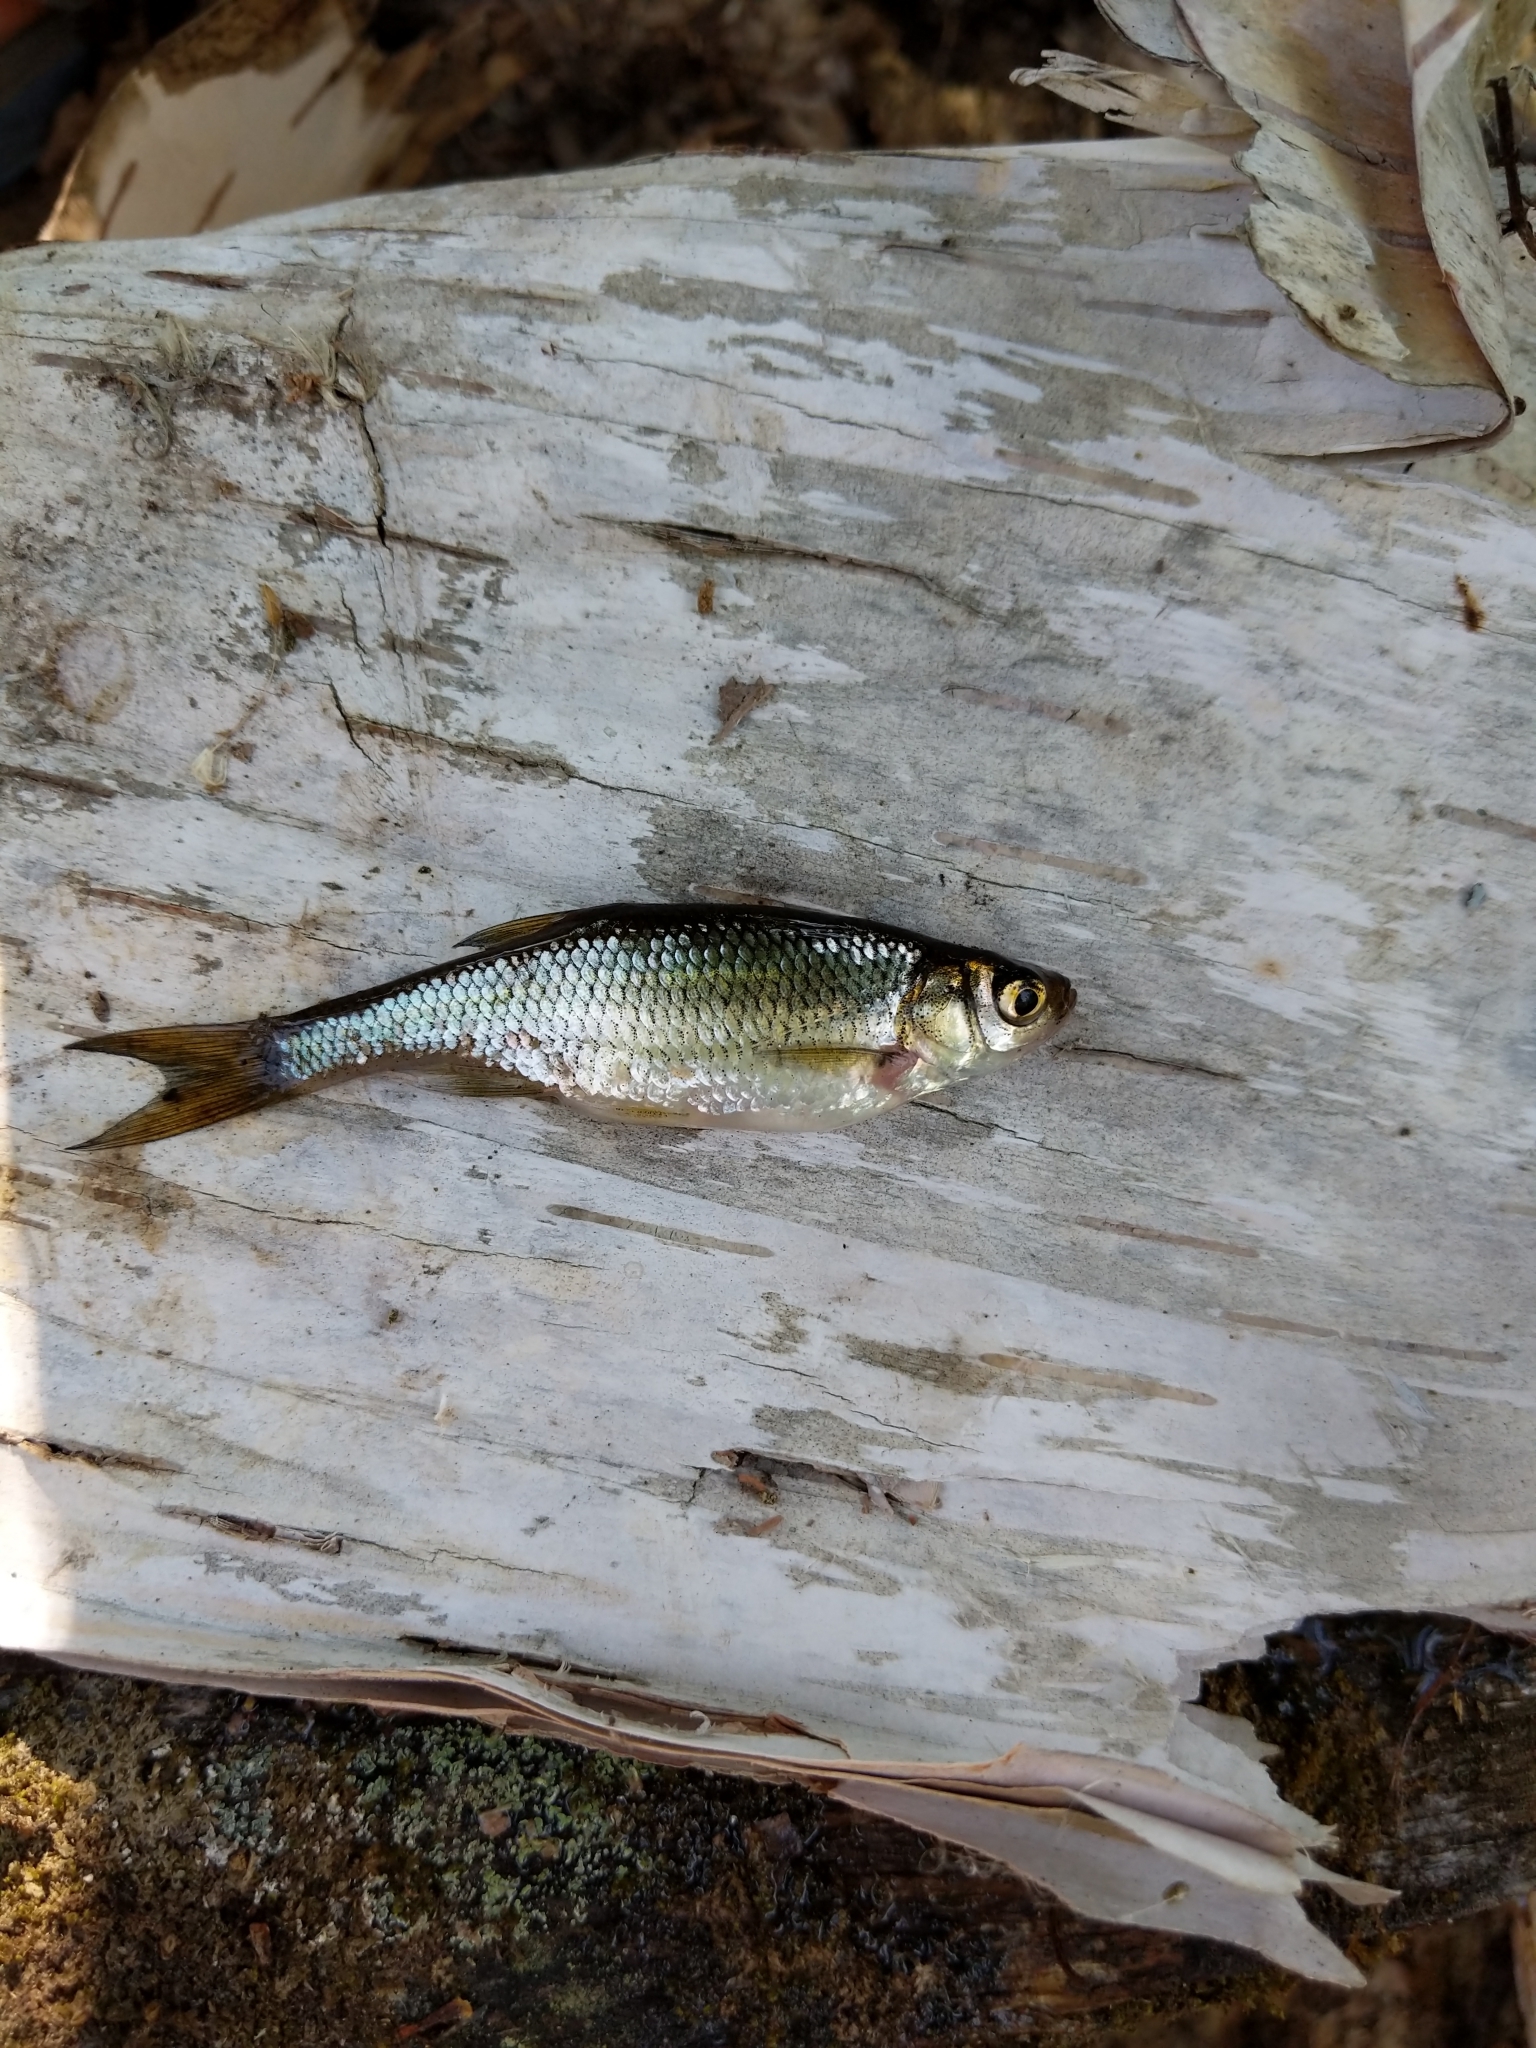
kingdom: Animalia
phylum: Chordata
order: Cypriniformes
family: Cyprinidae
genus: Notemigonus
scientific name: Notemigonus crysoleucas
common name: Golden shiner
